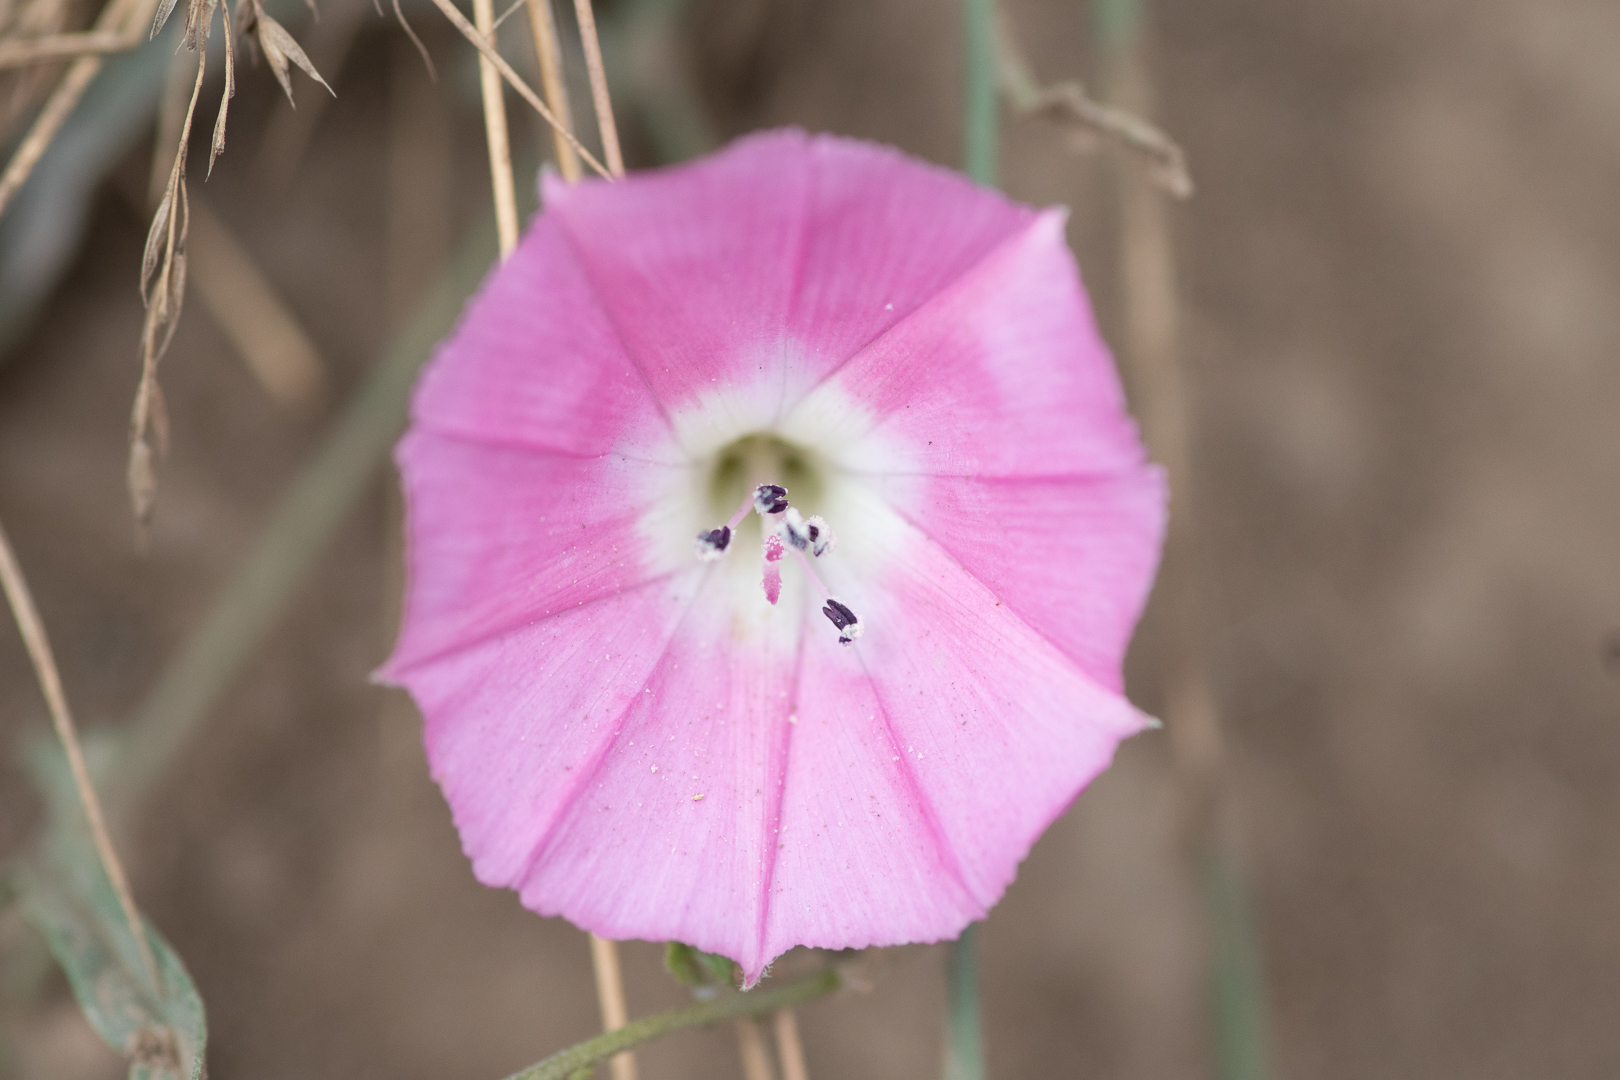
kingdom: Plantae
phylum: Tracheophyta
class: Magnoliopsida
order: Solanales
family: Convolvulaceae
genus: Convolvulus
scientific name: Convolvulus chilensis
